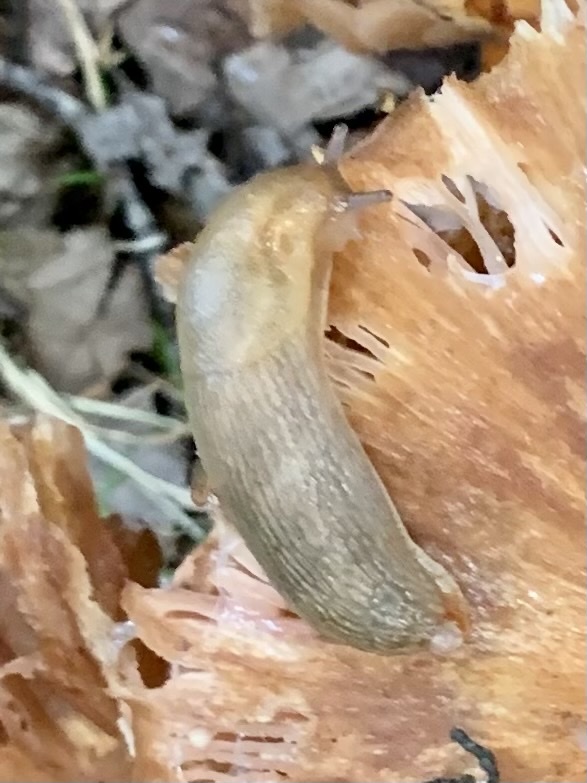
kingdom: Animalia
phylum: Mollusca
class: Gastropoda
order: Stylommatophora
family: Arionidae
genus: Arion
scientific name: Arion subfuscus
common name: Dusky arion
